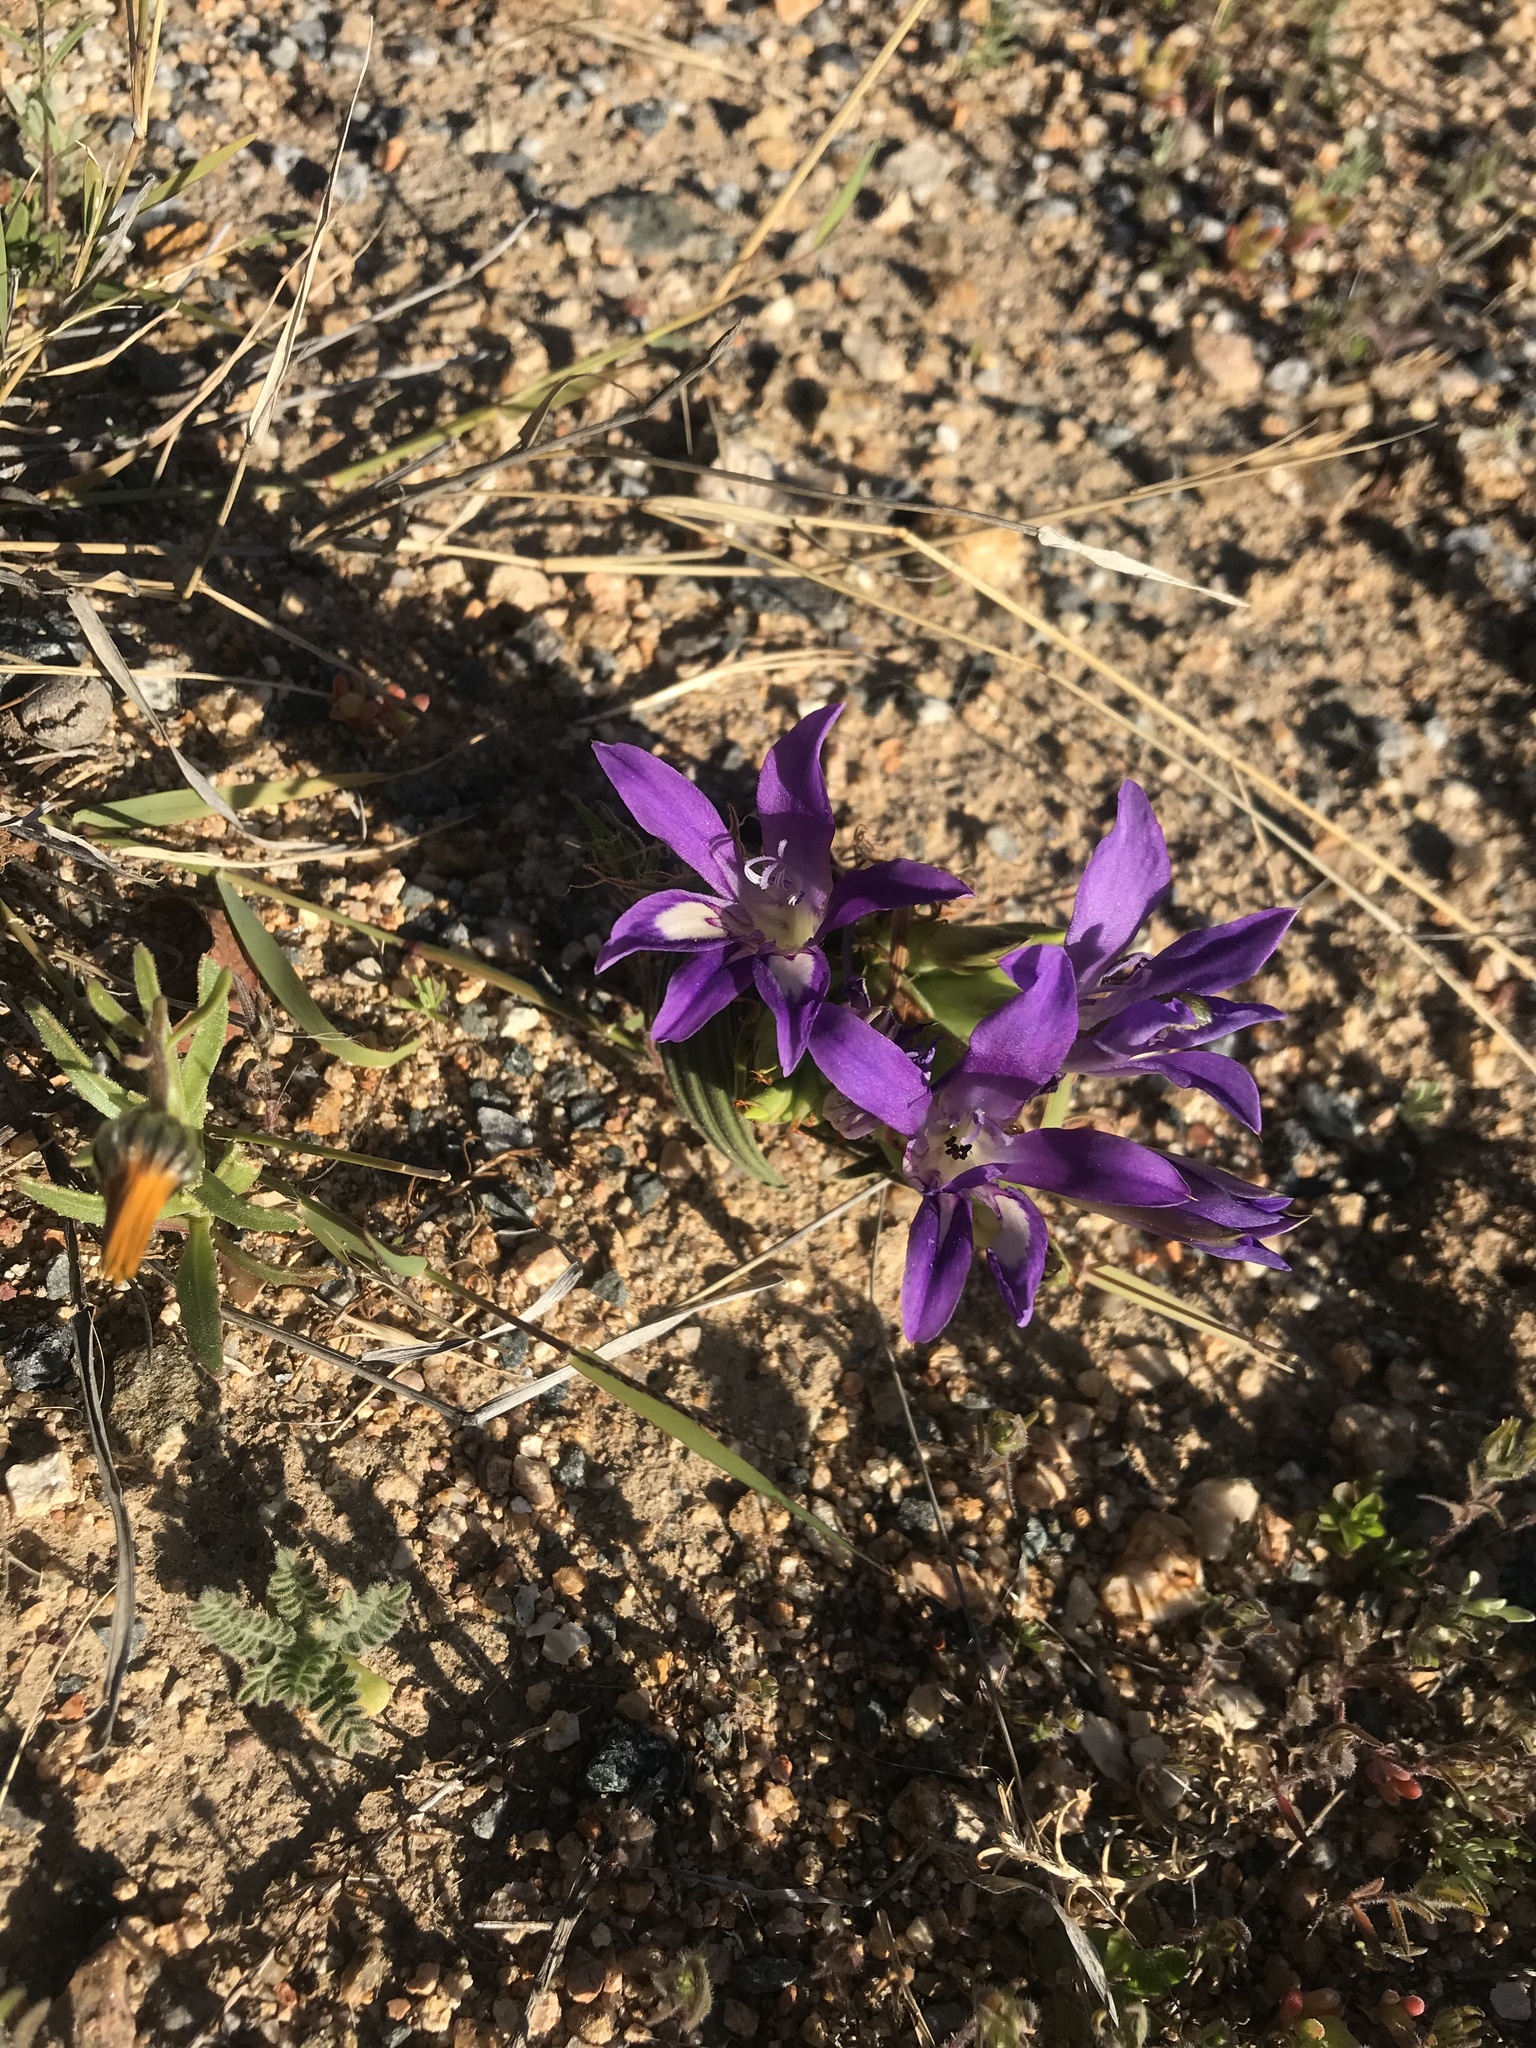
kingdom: Plantae
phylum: Tracheophyta
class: Liliopsida
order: Asparagales
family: Iridaceae
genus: Babiana
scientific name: Babiana curviscapa
